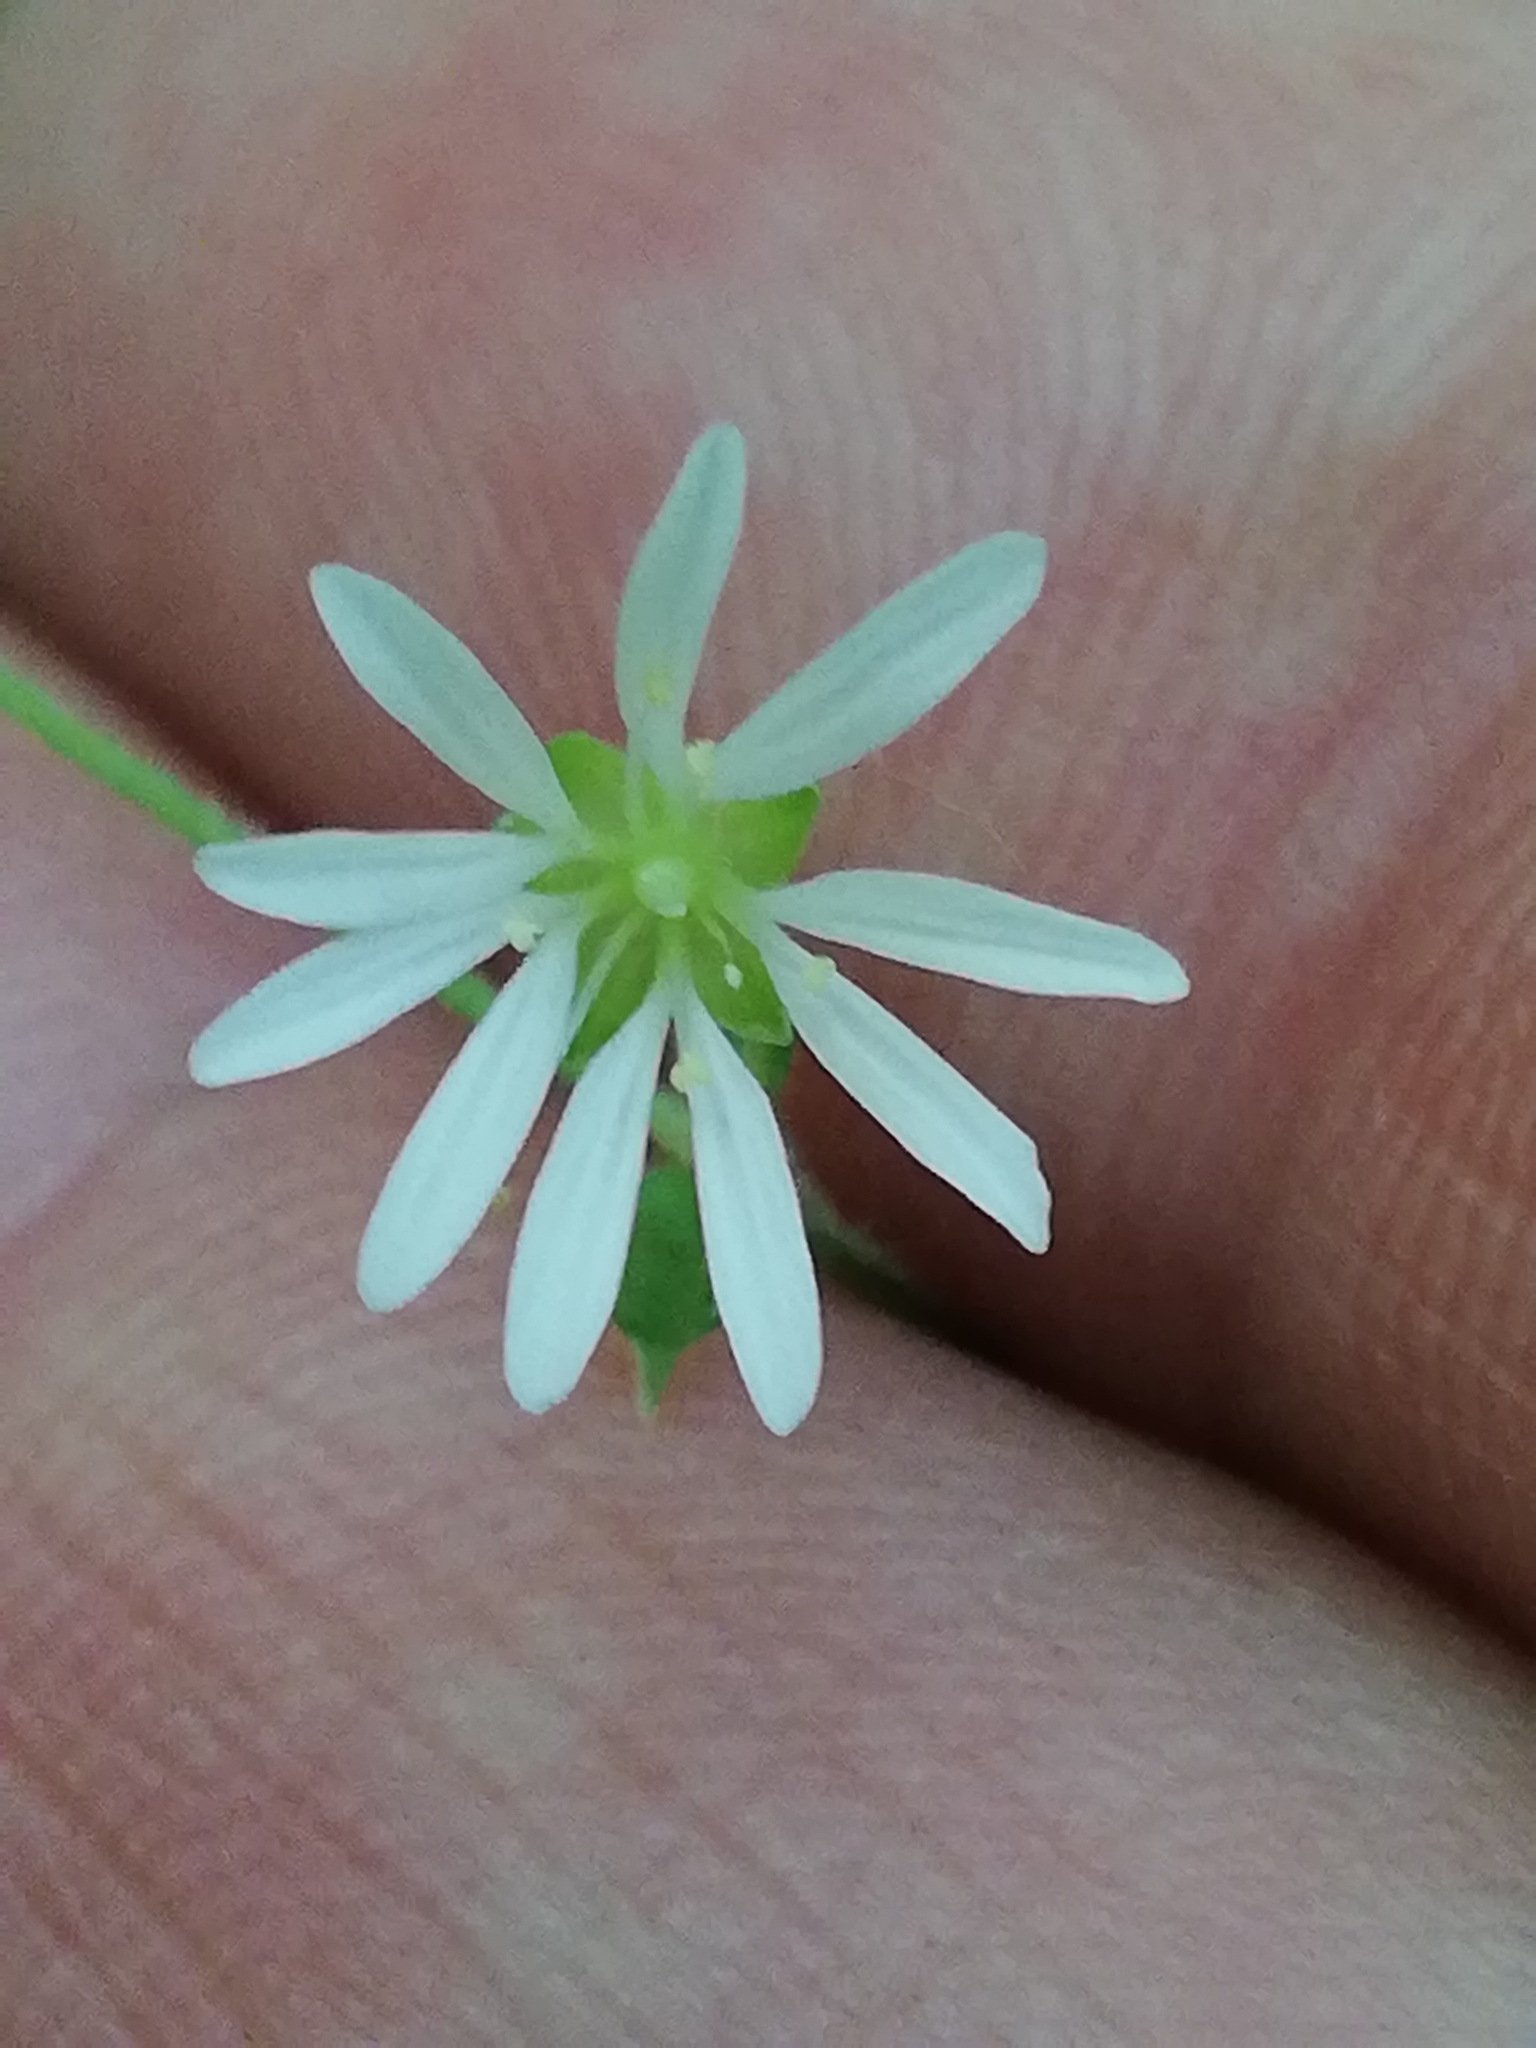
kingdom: Plantae
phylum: Tracheophyta
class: Magnoliopsida
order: Caryophyllales
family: Caryophyllaceae
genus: Stellaria
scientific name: Stellaria nemorum
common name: Wood stitchwort
